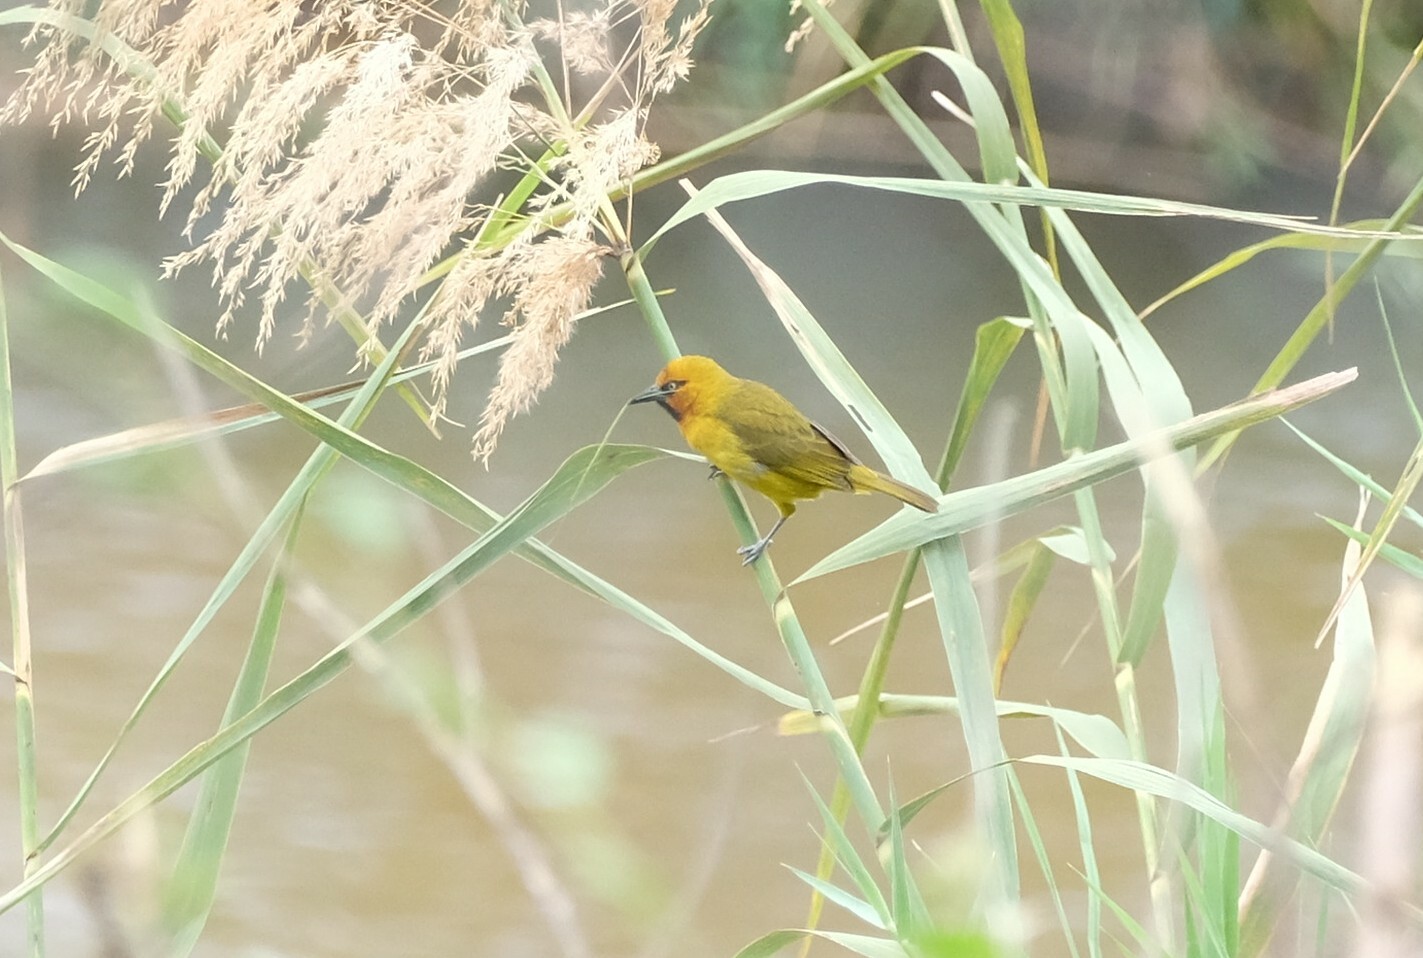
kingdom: Animalia
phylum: Chordata
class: Aves
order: Passeriformes
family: Ploceidae
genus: Ploceus
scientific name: Ploceus ocularis
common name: Spectacled weaver
